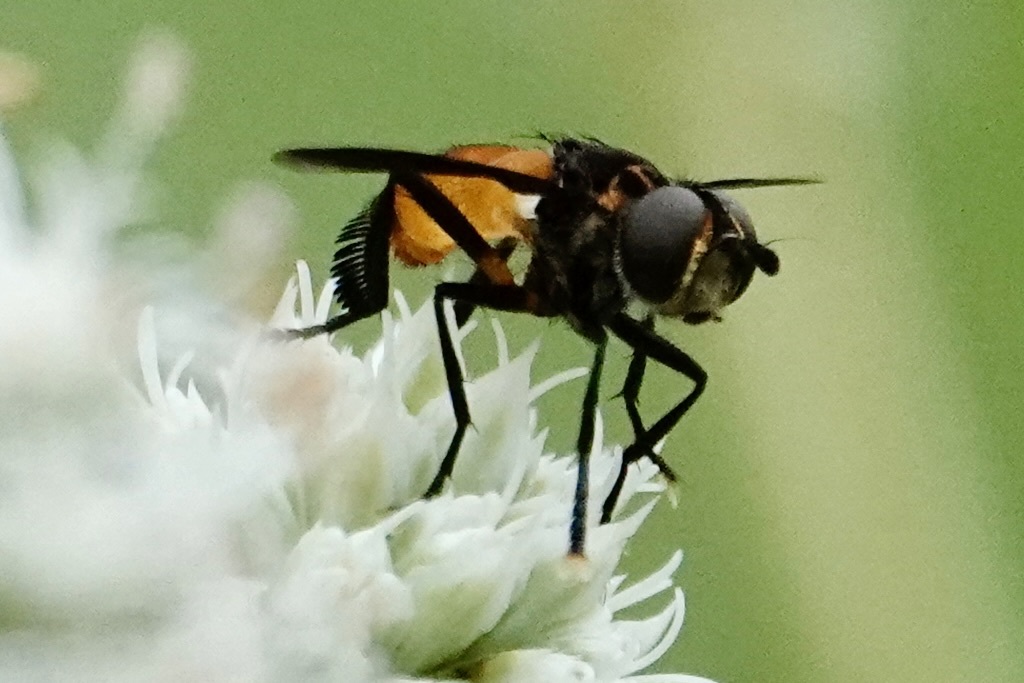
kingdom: Animalia
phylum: Arthropoda
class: Insecta
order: Diptera
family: Tachinidae
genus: Trichopoda
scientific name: Trichopoda pennipes
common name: Tachinid fly
